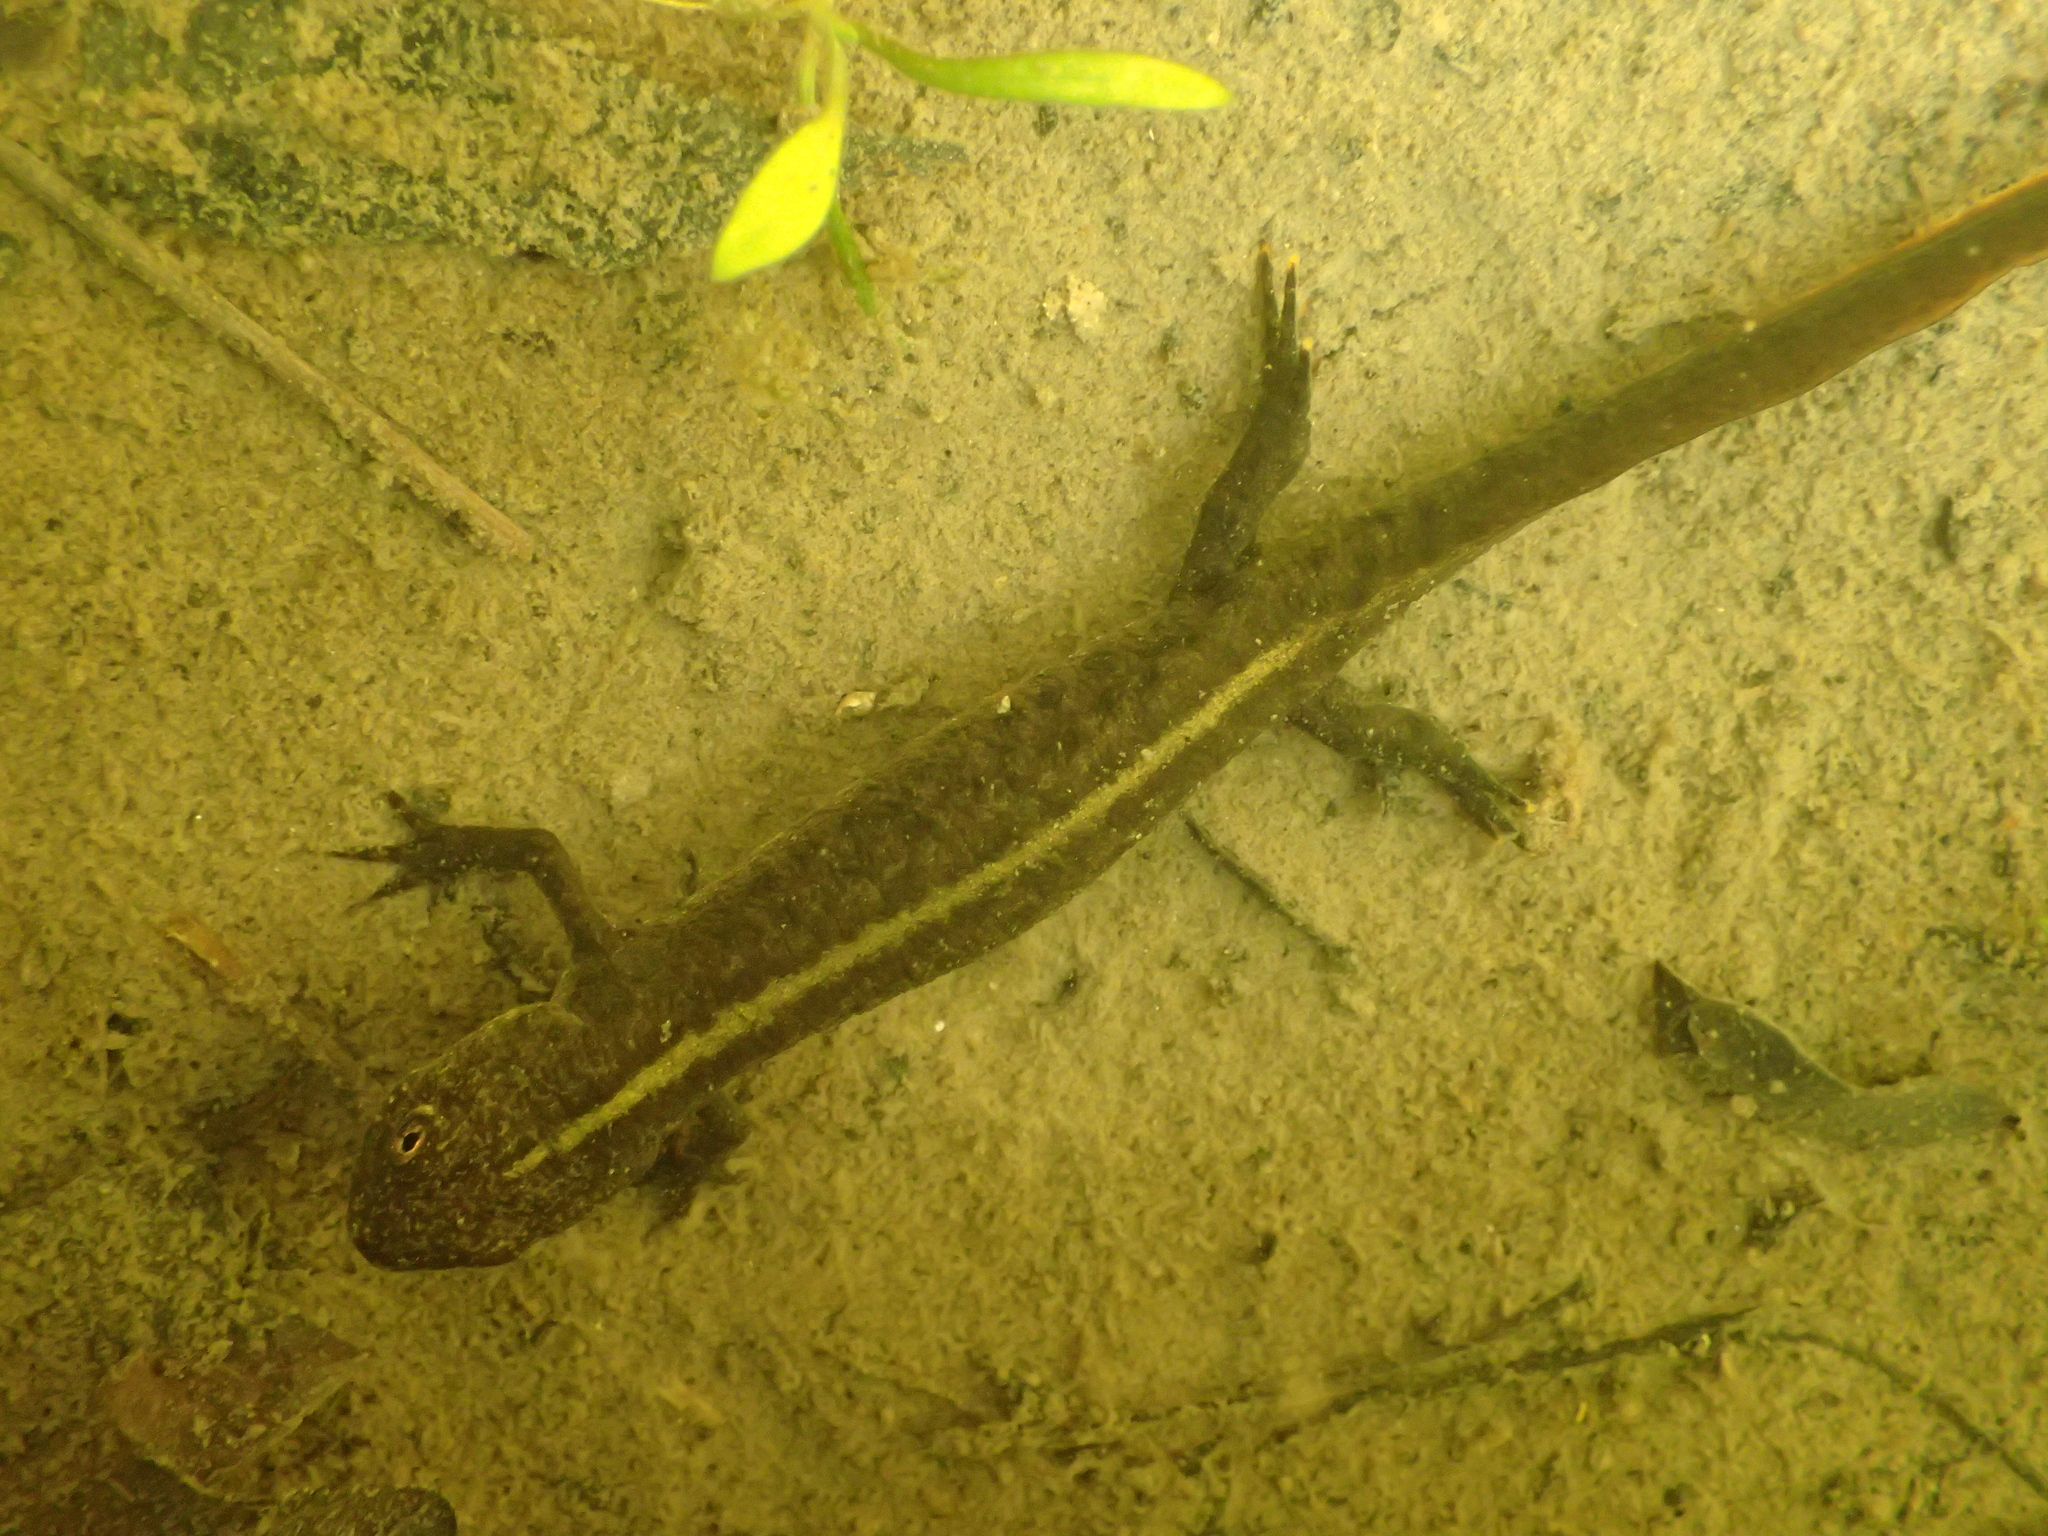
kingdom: Animalia
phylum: Chordata
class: Amphibia
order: Caudata
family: Salamandridae
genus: Triturus
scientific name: Triturus carnifex
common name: Italian crested newt
